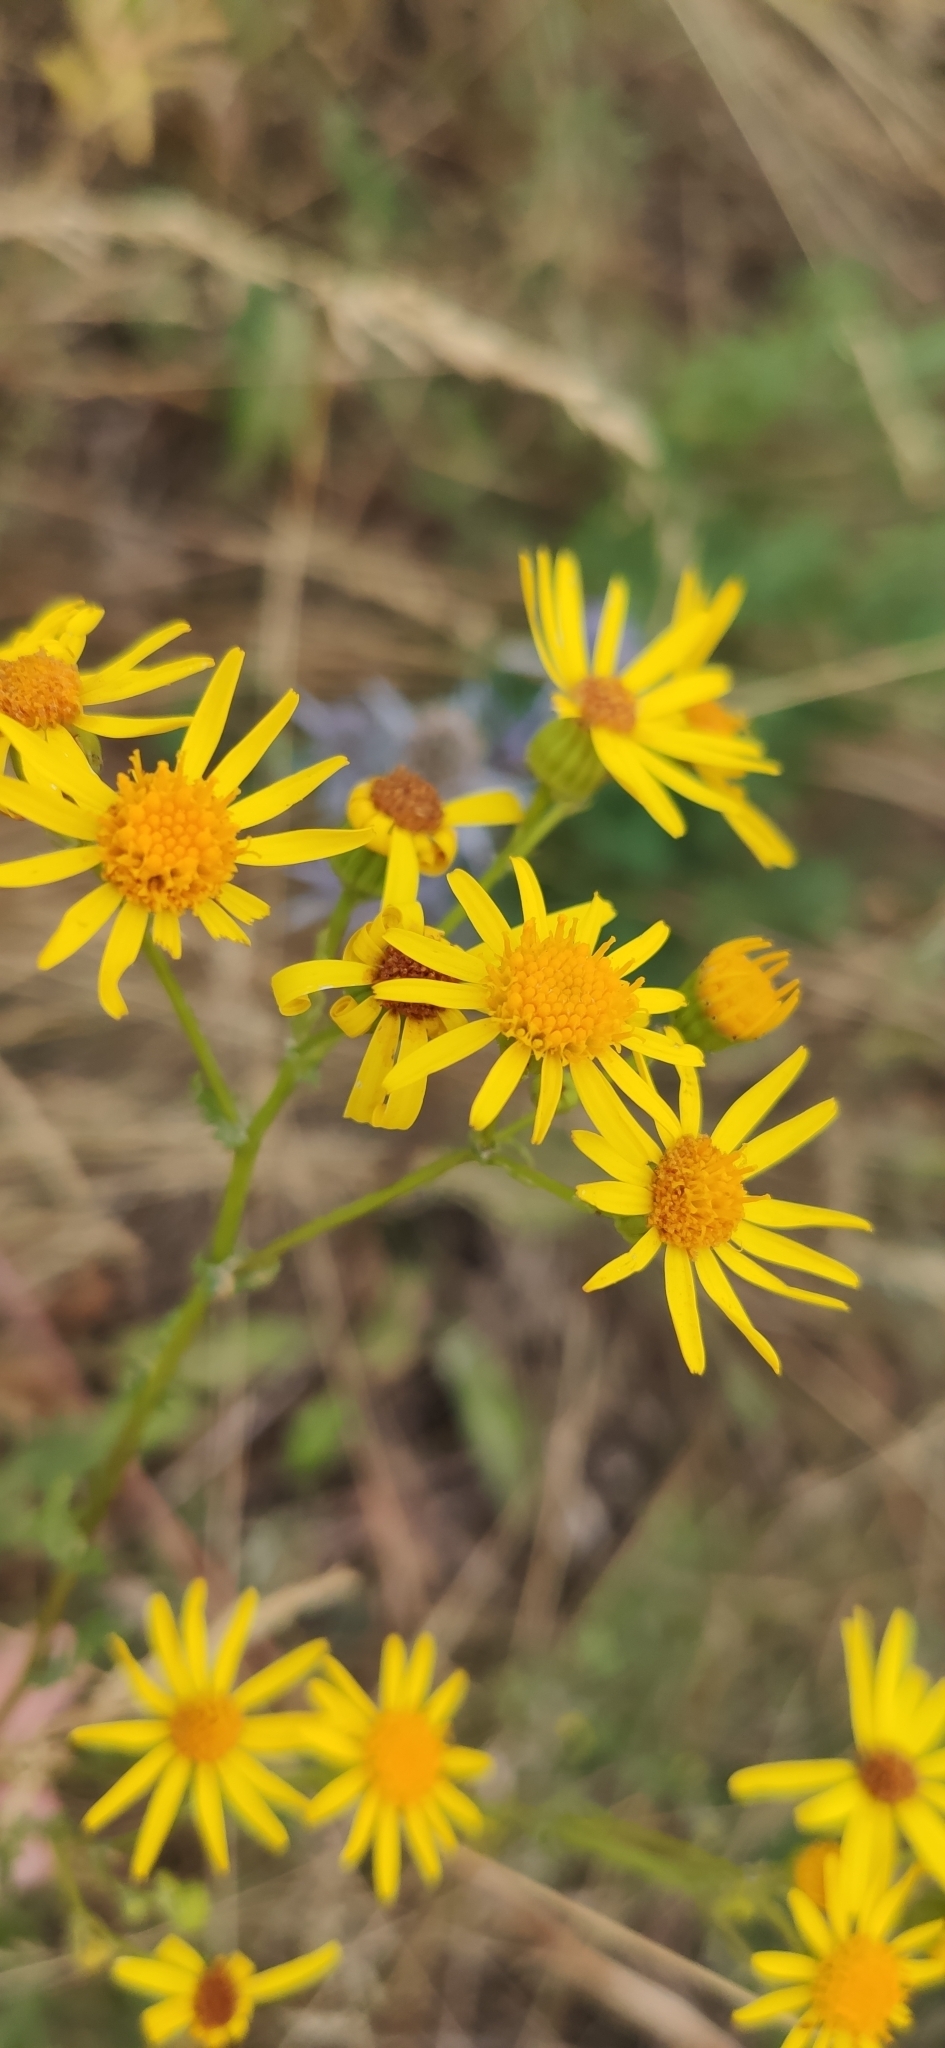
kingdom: Plantae
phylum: Tracheophyta
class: Magnoliopsida
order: Asterales
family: Asteraceae
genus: Jacobaea
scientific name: Jacobaea vulgaris
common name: Stinking willie
